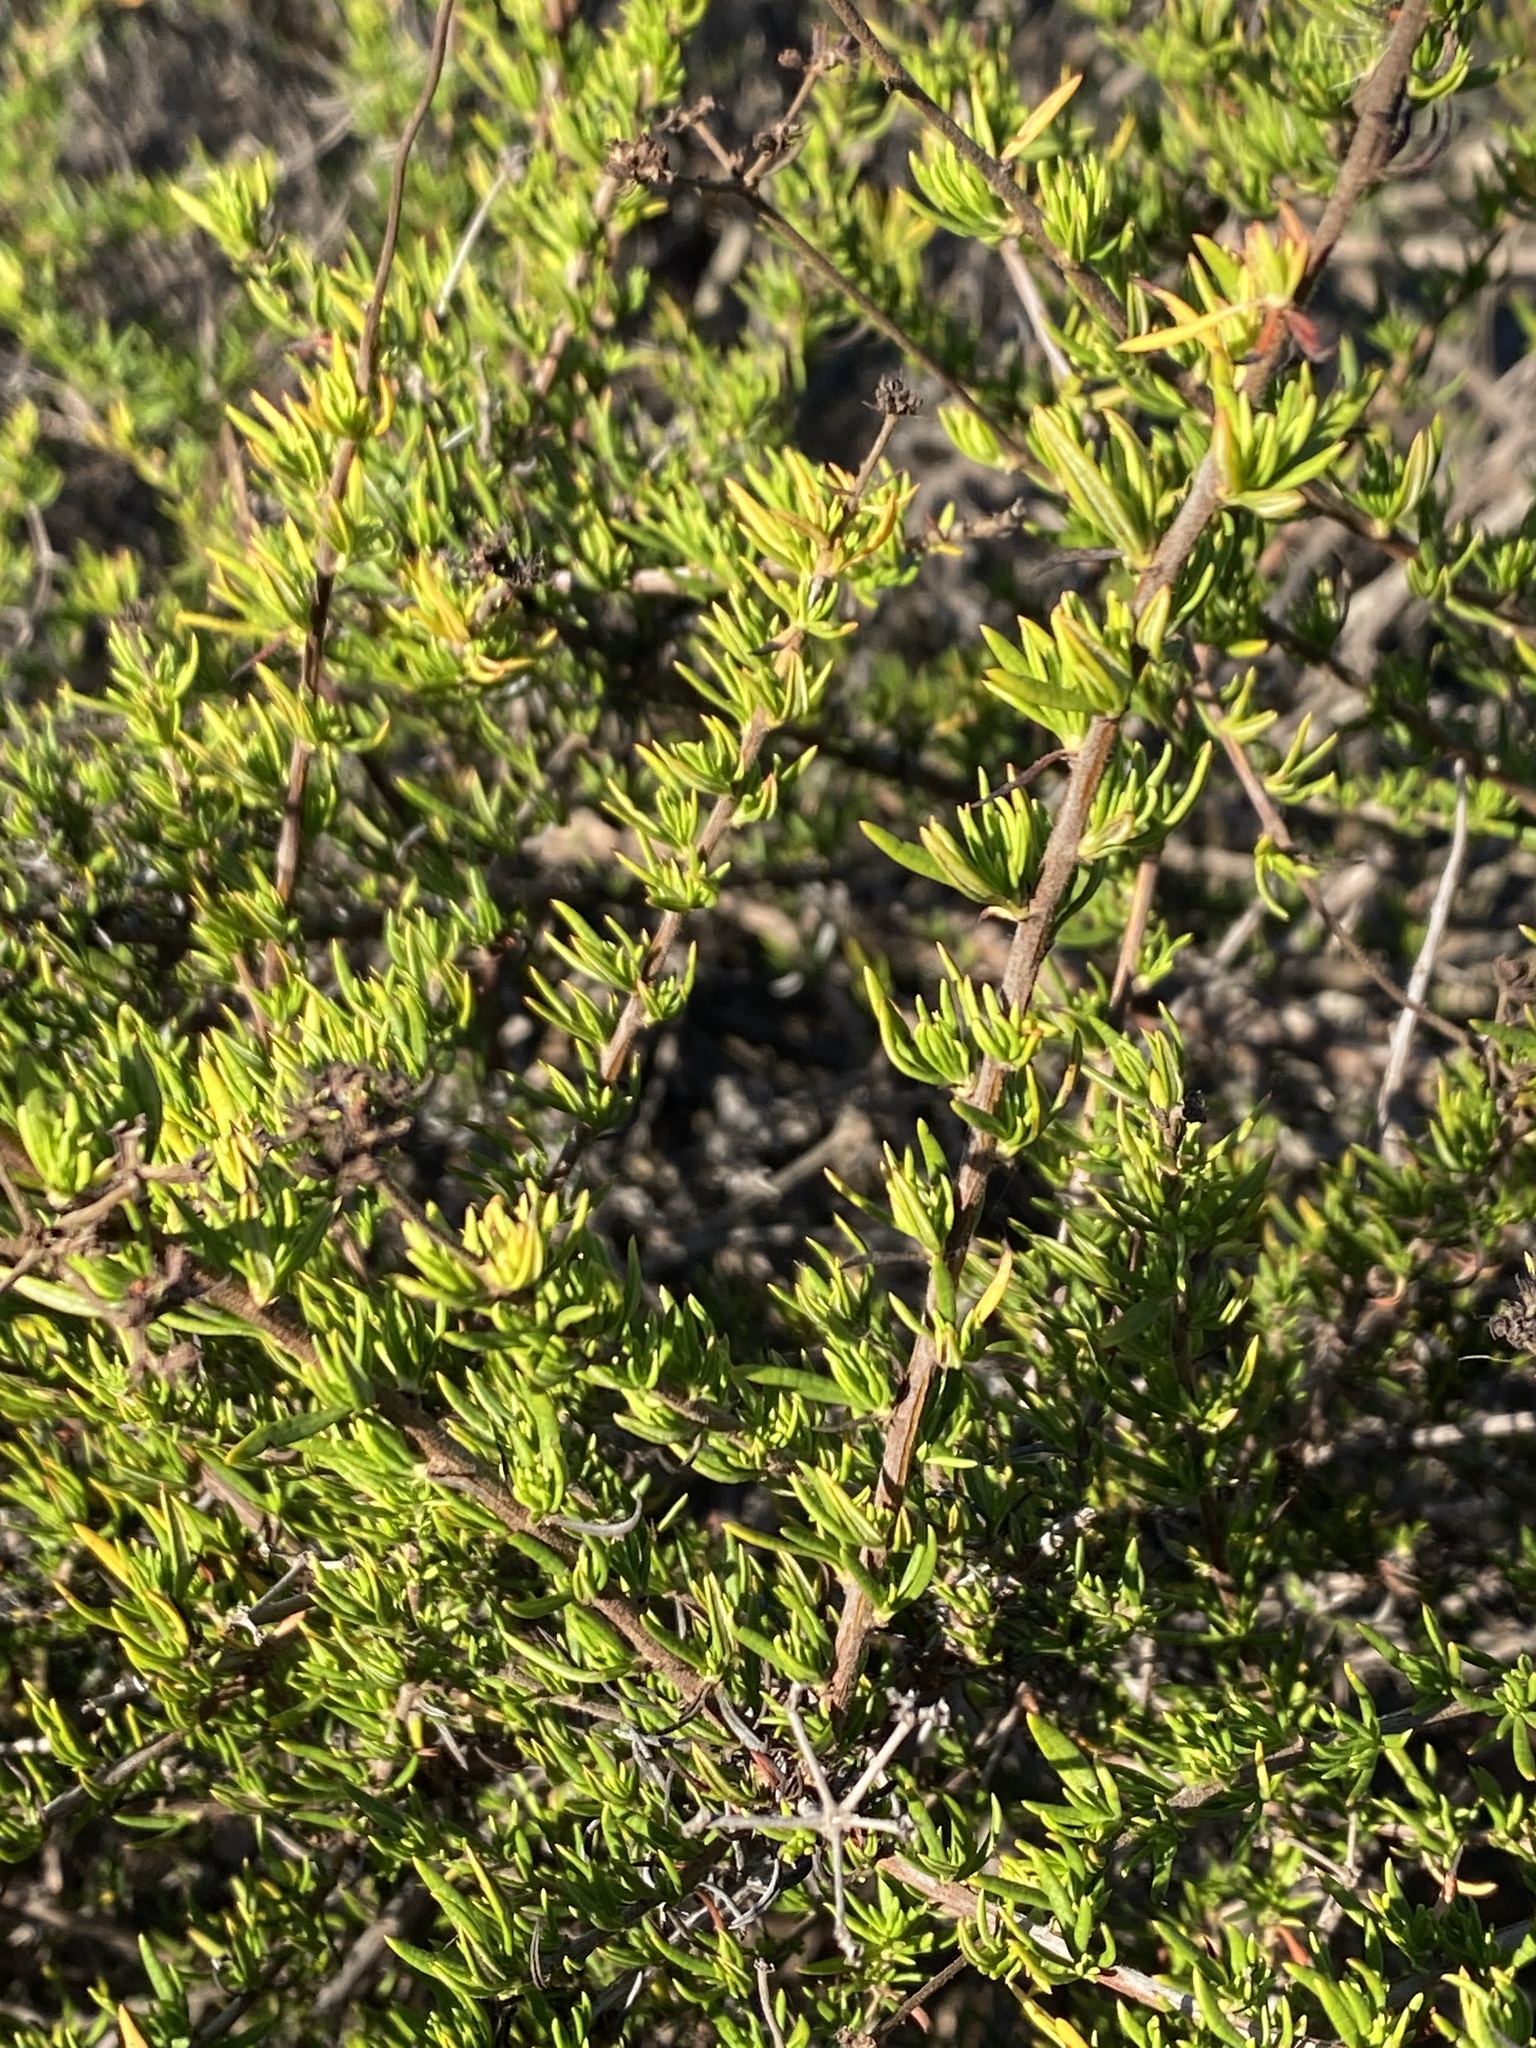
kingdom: Plantae
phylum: Tracheophyta
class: Magnoliopsida
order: Caryophyllales
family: Polygonaceae
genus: Eriogonum
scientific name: Eriogonum fasciculatum
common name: California wild buckwheat
